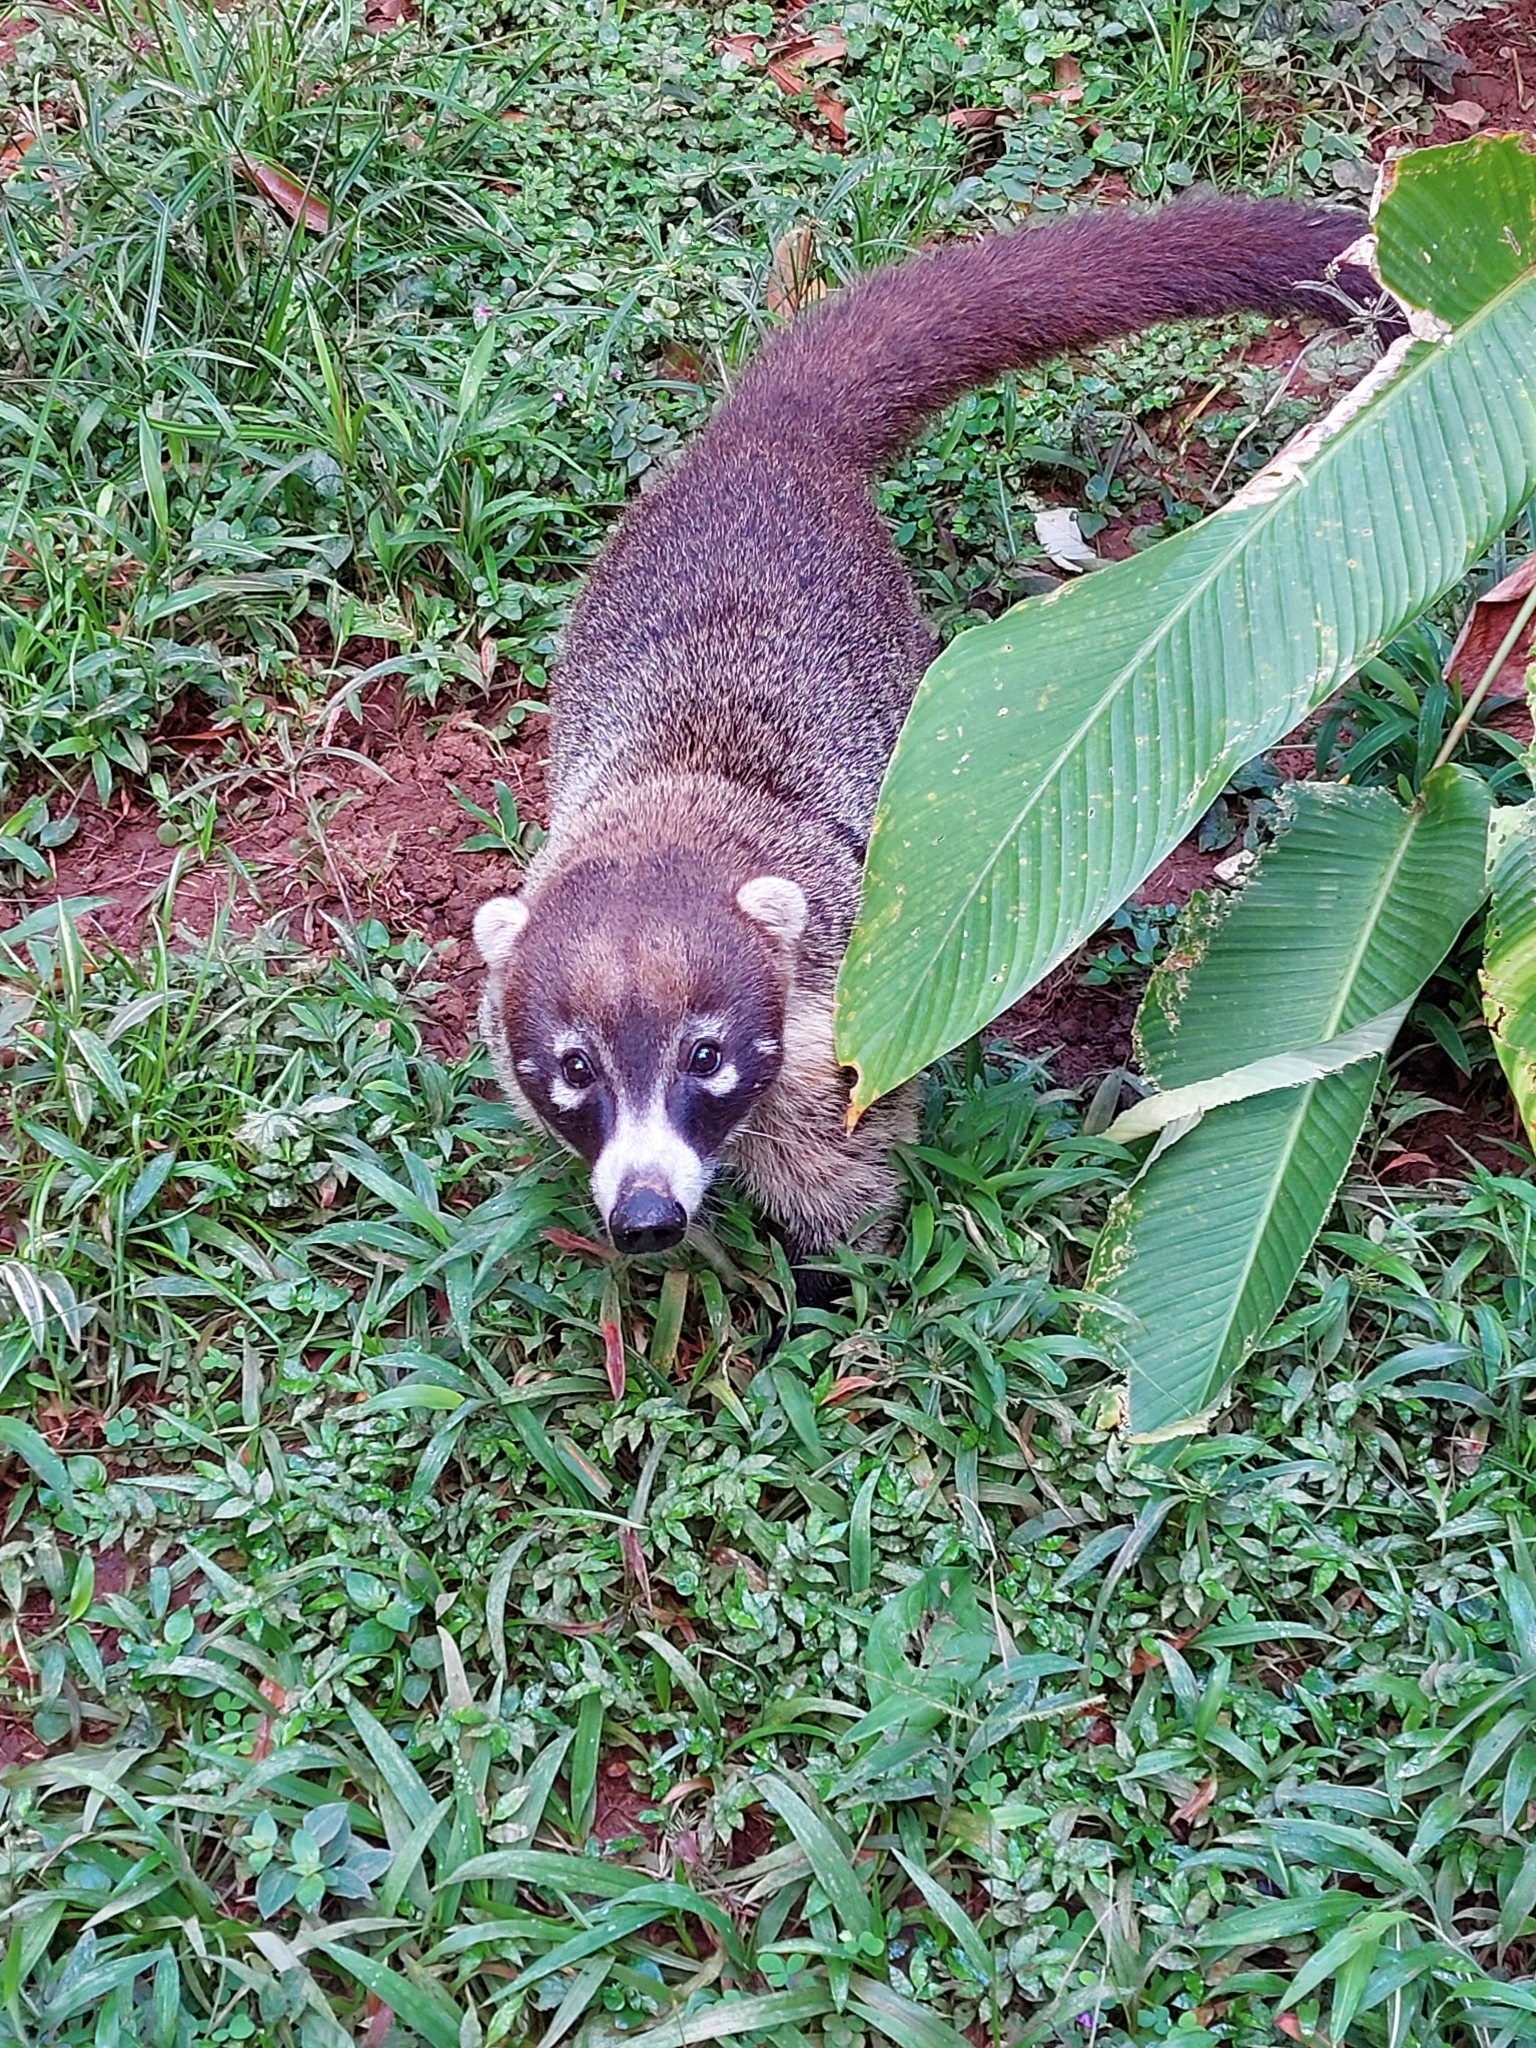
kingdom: Animalia
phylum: Chordata
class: Mammalia
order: Carnivora
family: Procyonidae
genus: Nasua
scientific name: Nasua narica
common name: White-nosed coati
